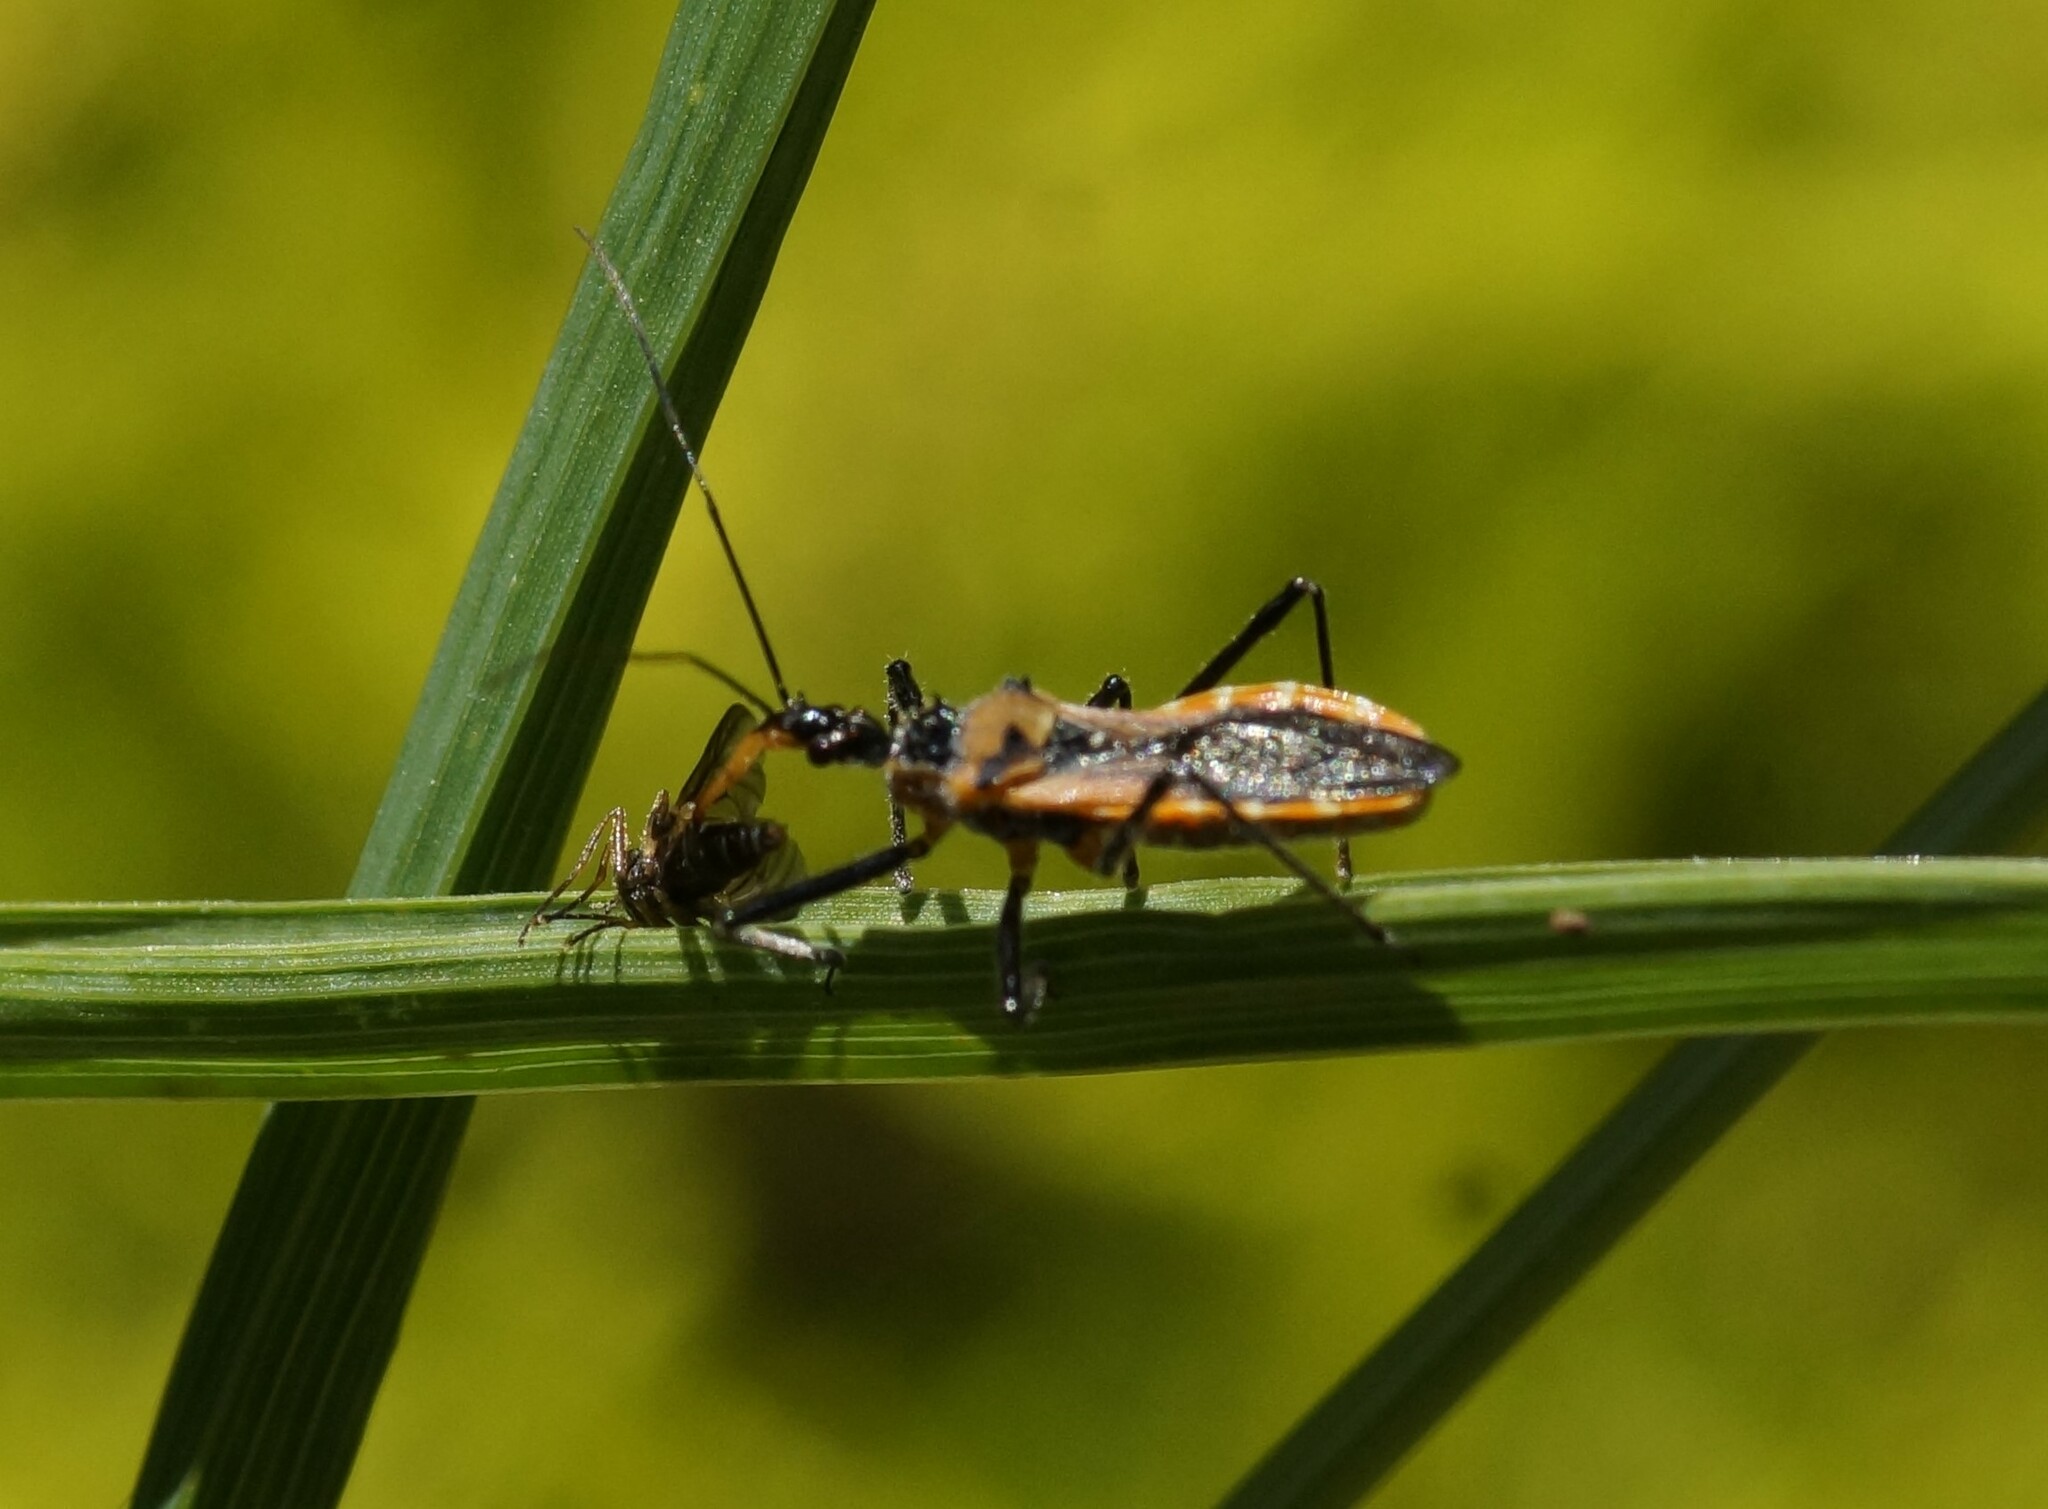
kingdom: Animalia
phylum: Arthropoda
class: Insecta
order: Hemiptera
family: Reduviidae
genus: Gminatus
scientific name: Gminatus australis
